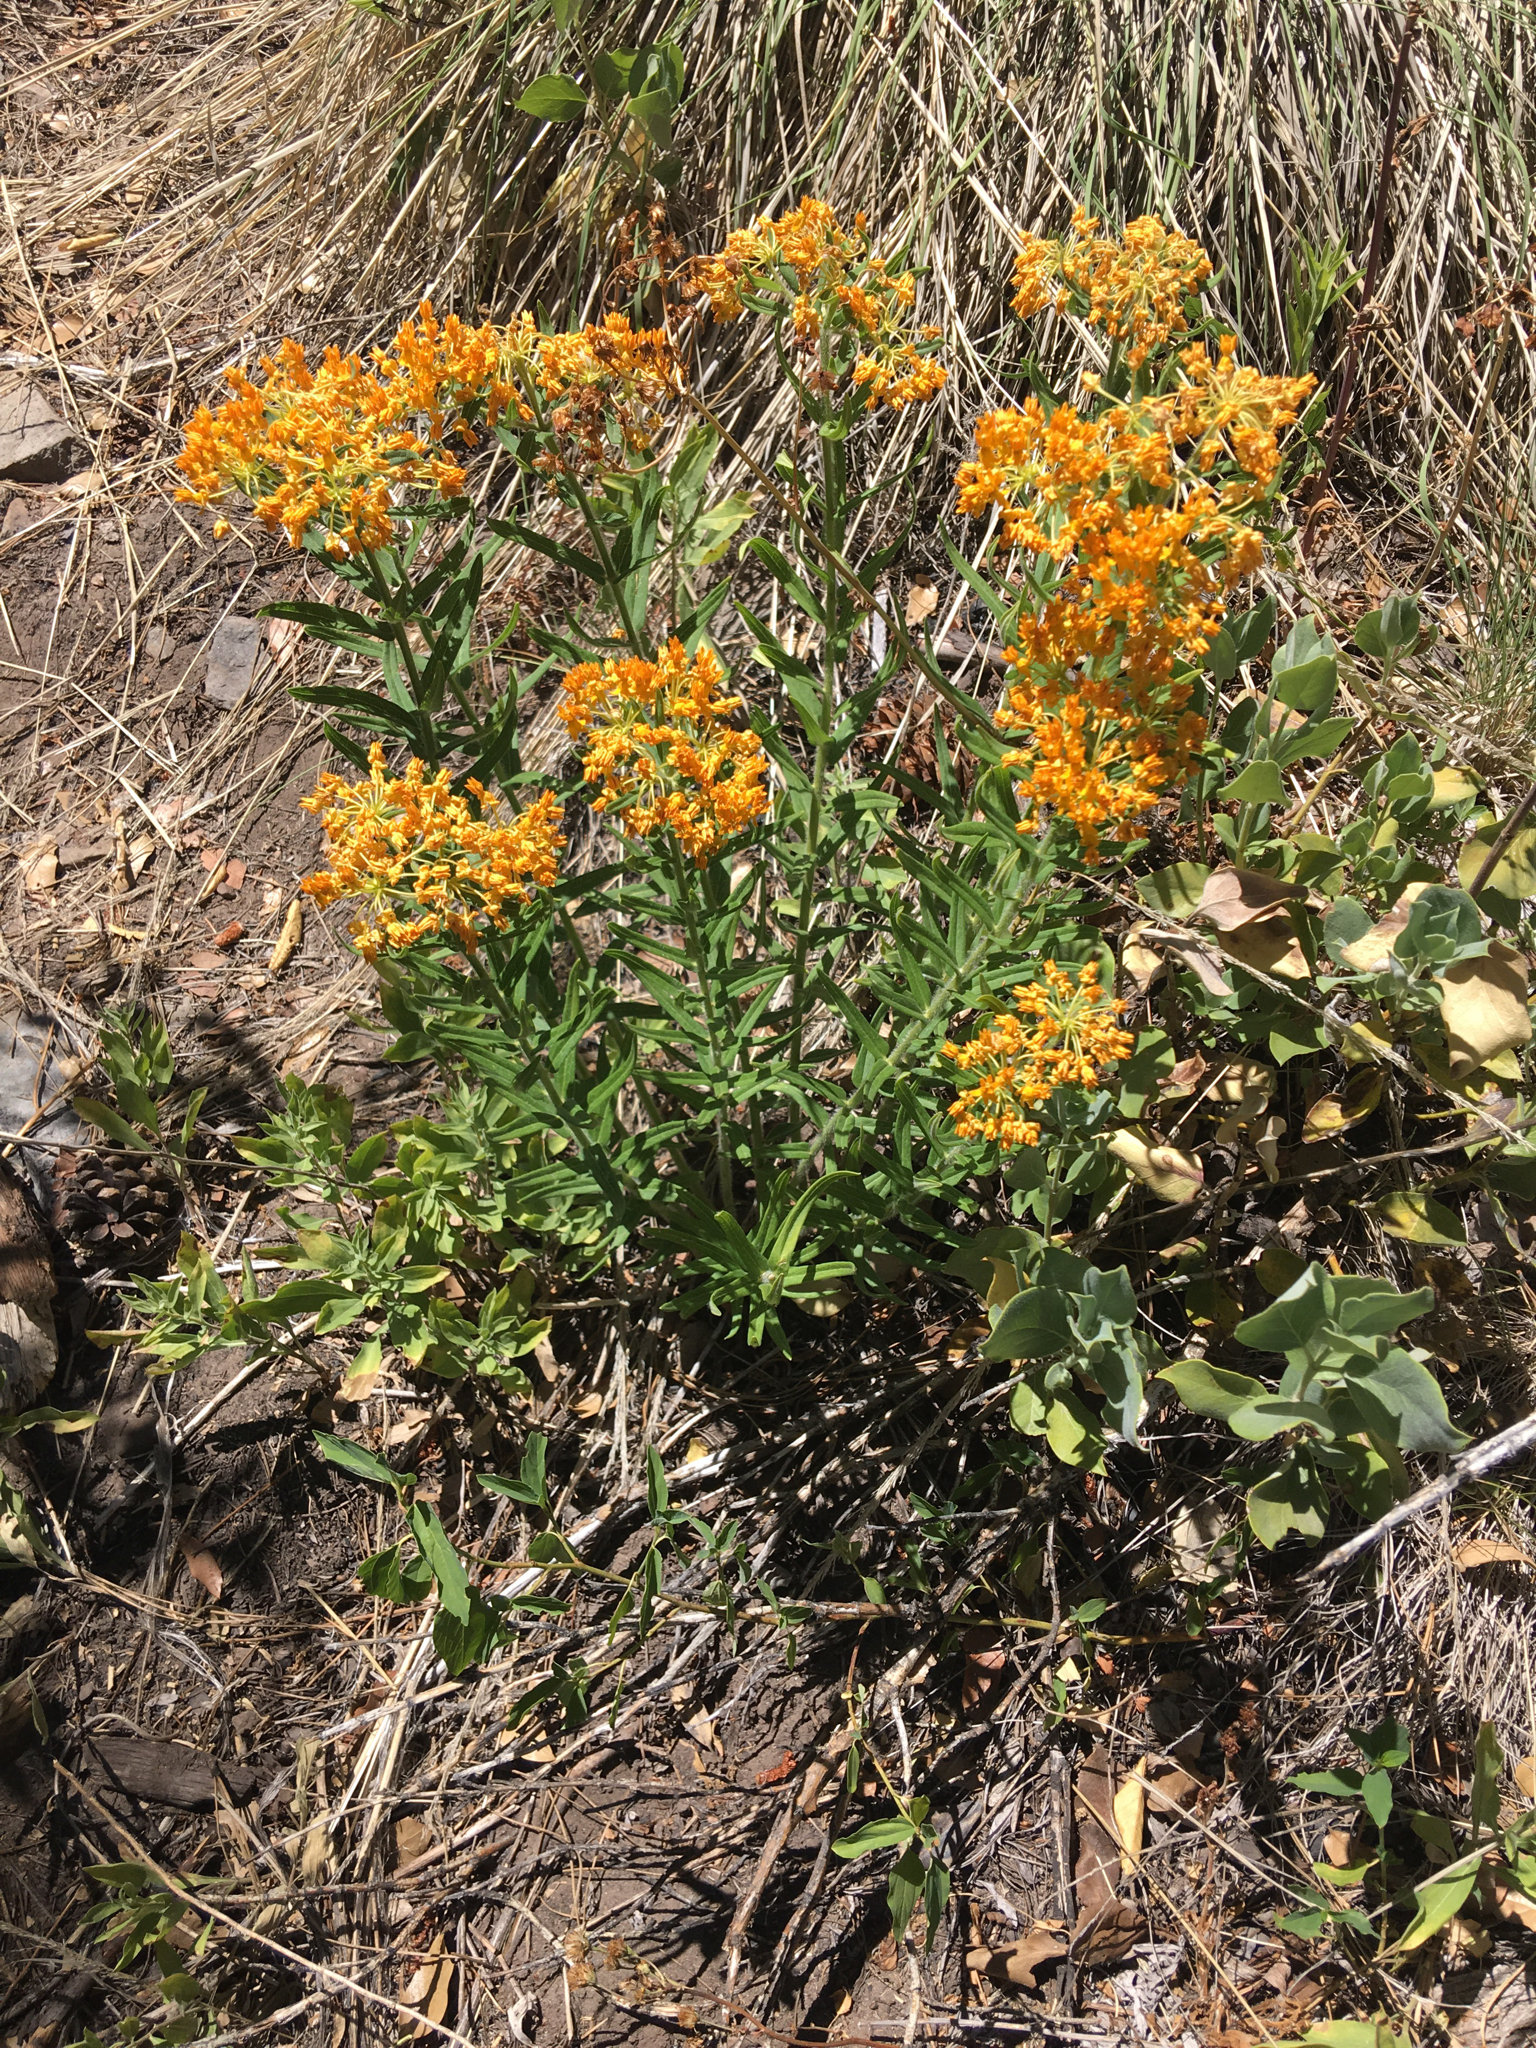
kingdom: Plantae
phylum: Tracheophyta
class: Magnoliopsida
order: Gentianales
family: Apocynaceae
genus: Asclepias
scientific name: Asclepias tuberosa
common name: Butterfly milkweed
